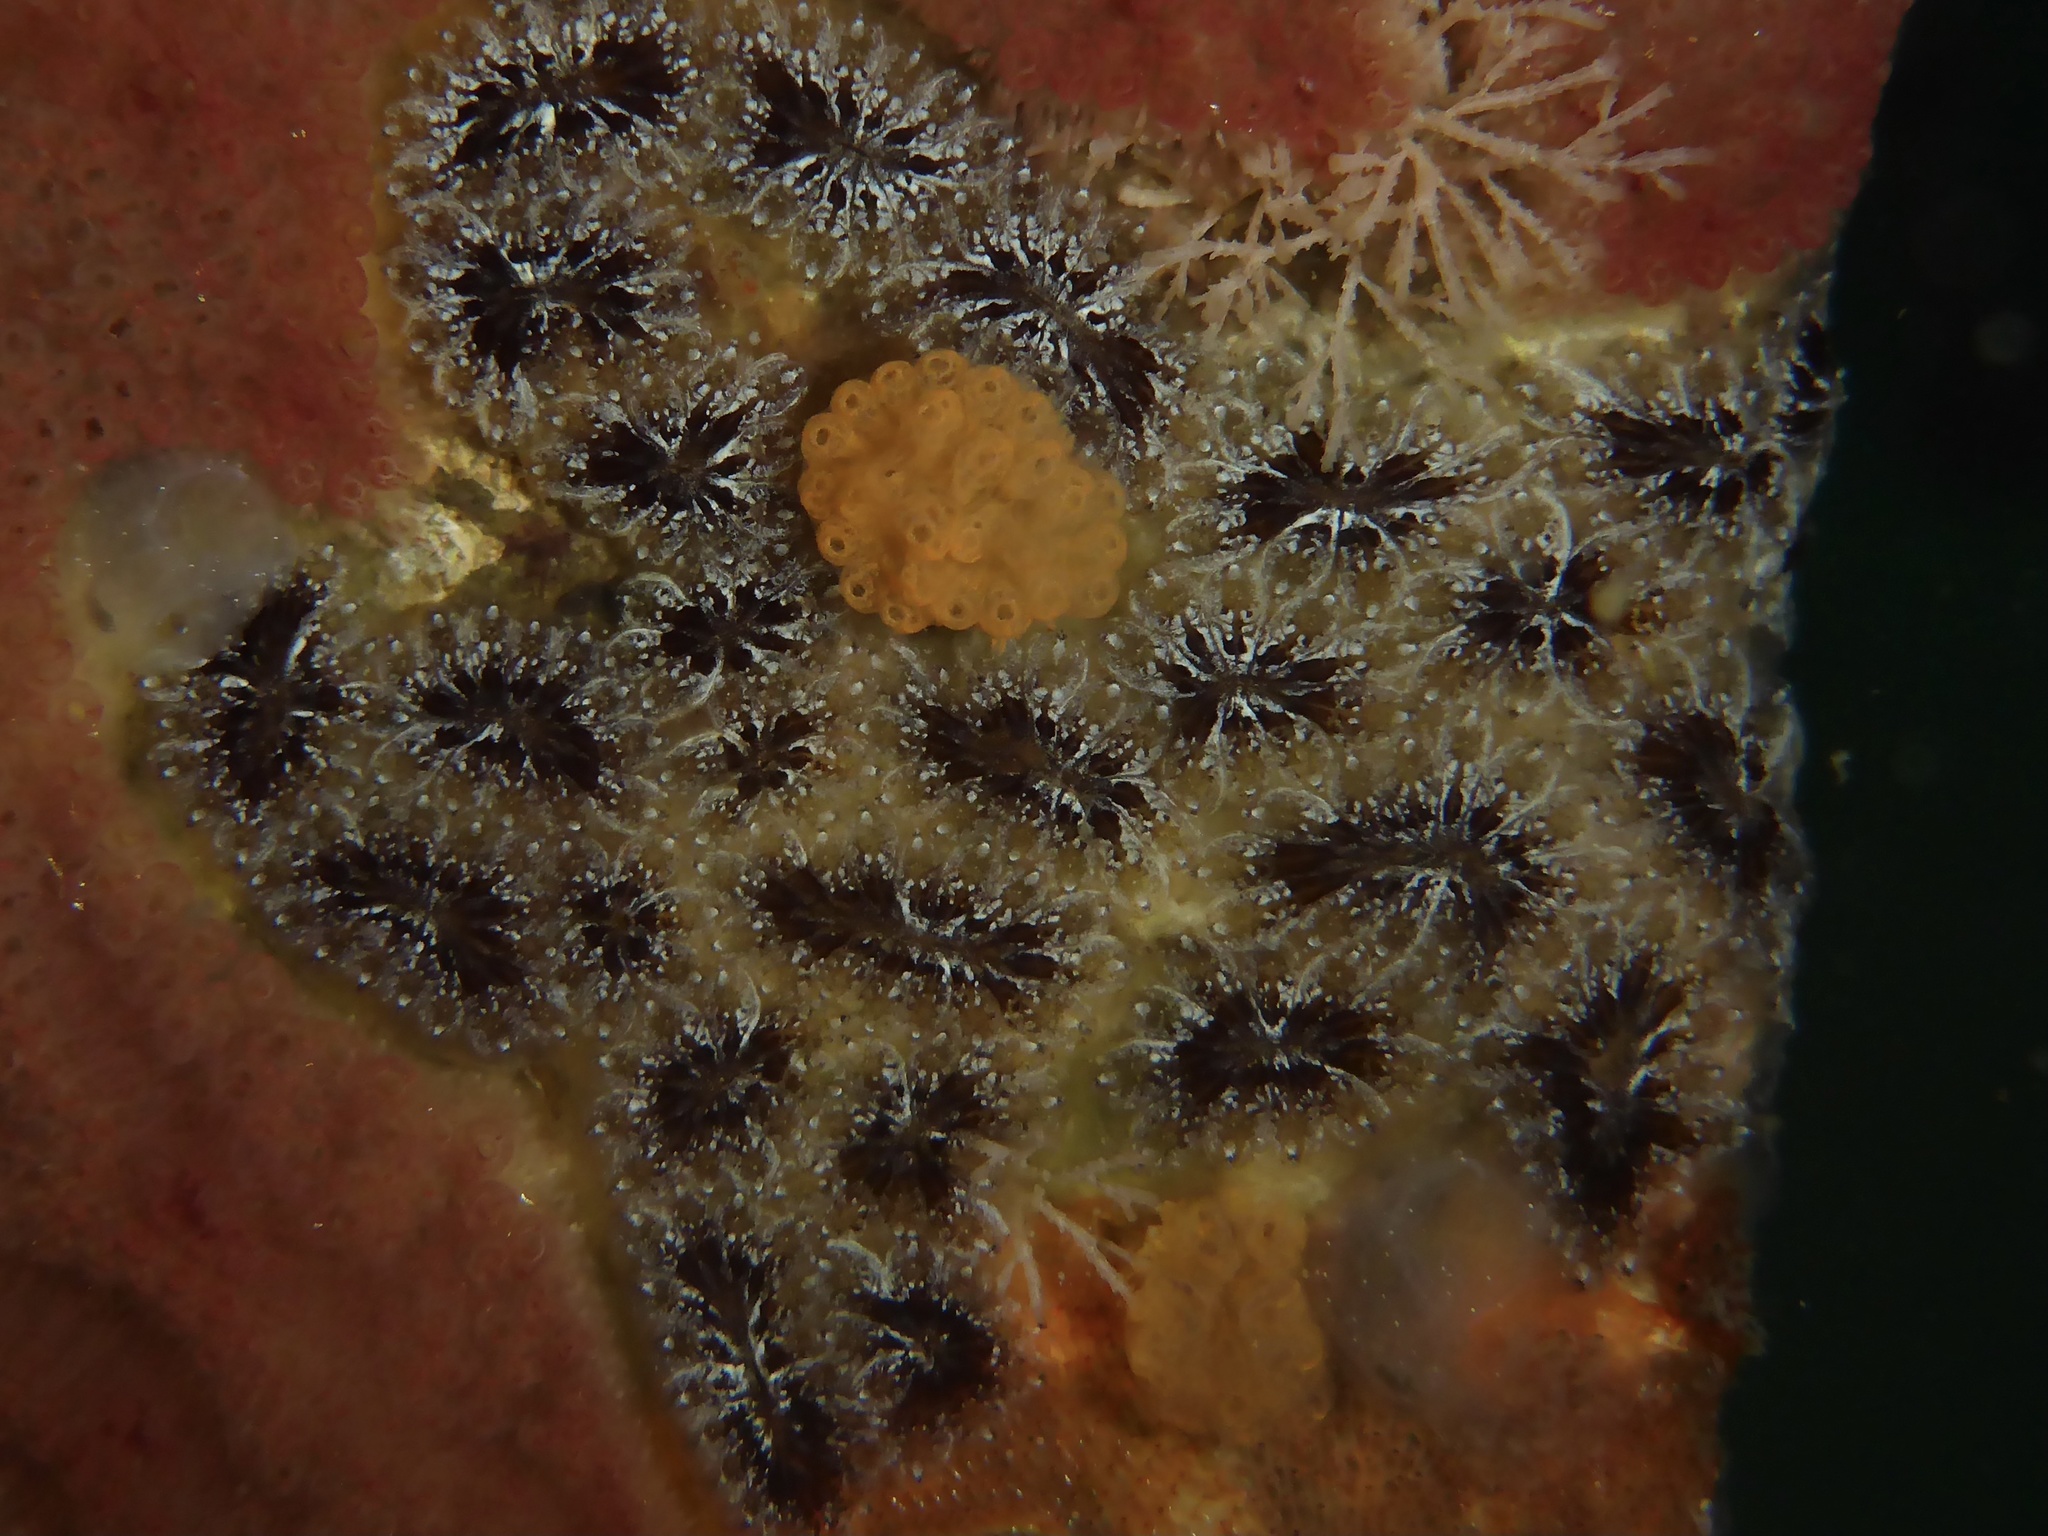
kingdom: Animalia
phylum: Chordata
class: Ascidiacea
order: Stolidobranchia
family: Styelidae
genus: Botryllus
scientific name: Botryllus schlosseri
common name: Golden star tunicate
